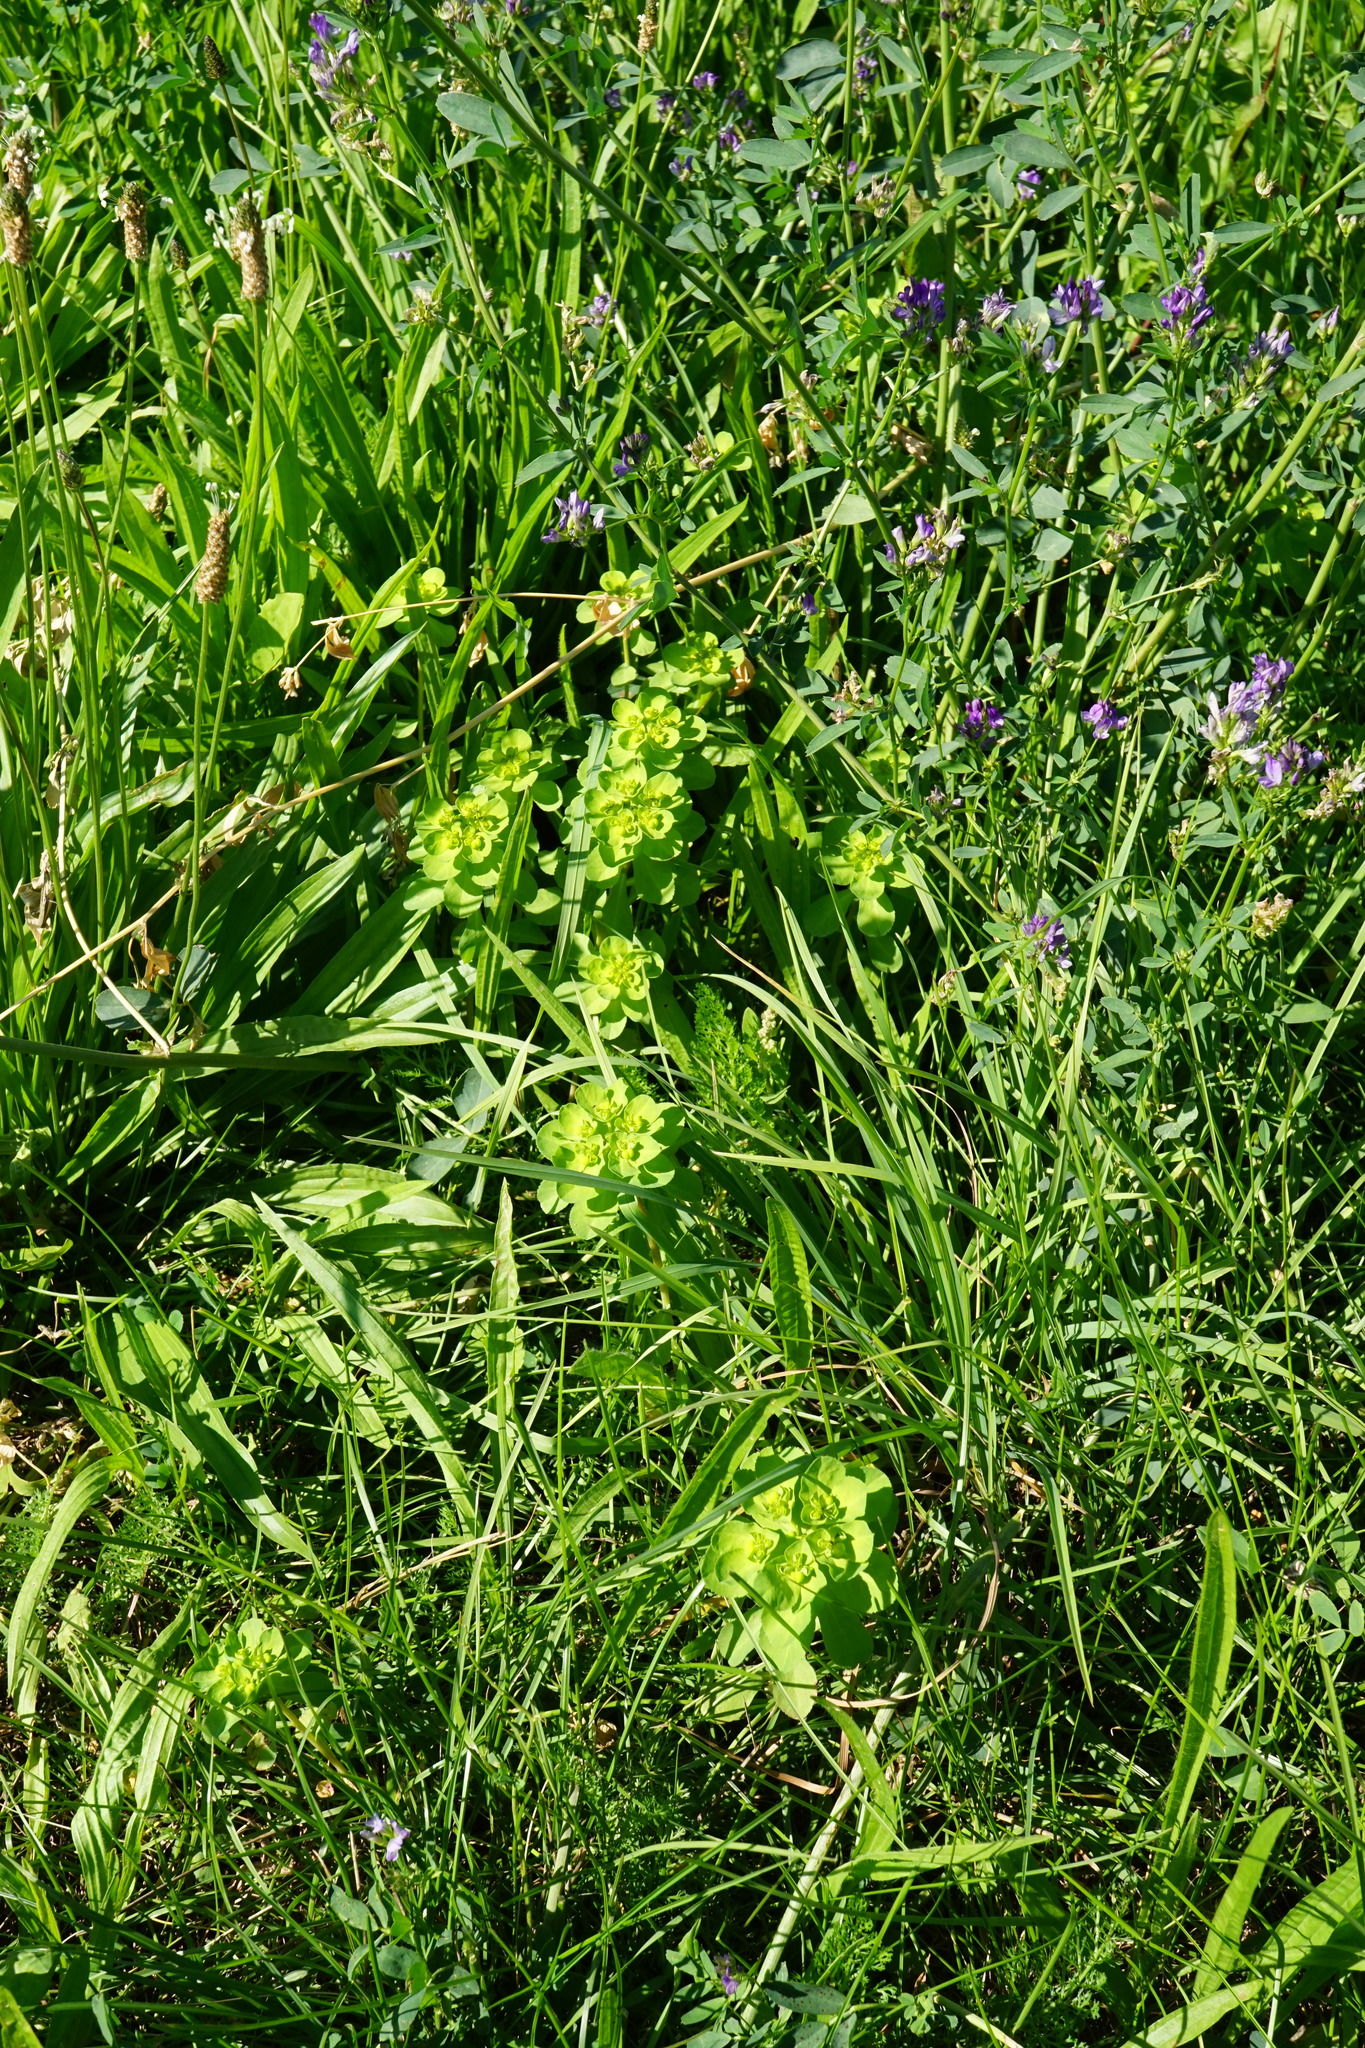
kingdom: Plantae
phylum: Tracheophyta
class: Magnoliopsida
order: Malpighiales
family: Euphorbiaceae
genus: Euphorbia
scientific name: Euphorbia helioscopia
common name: Sun spurge
